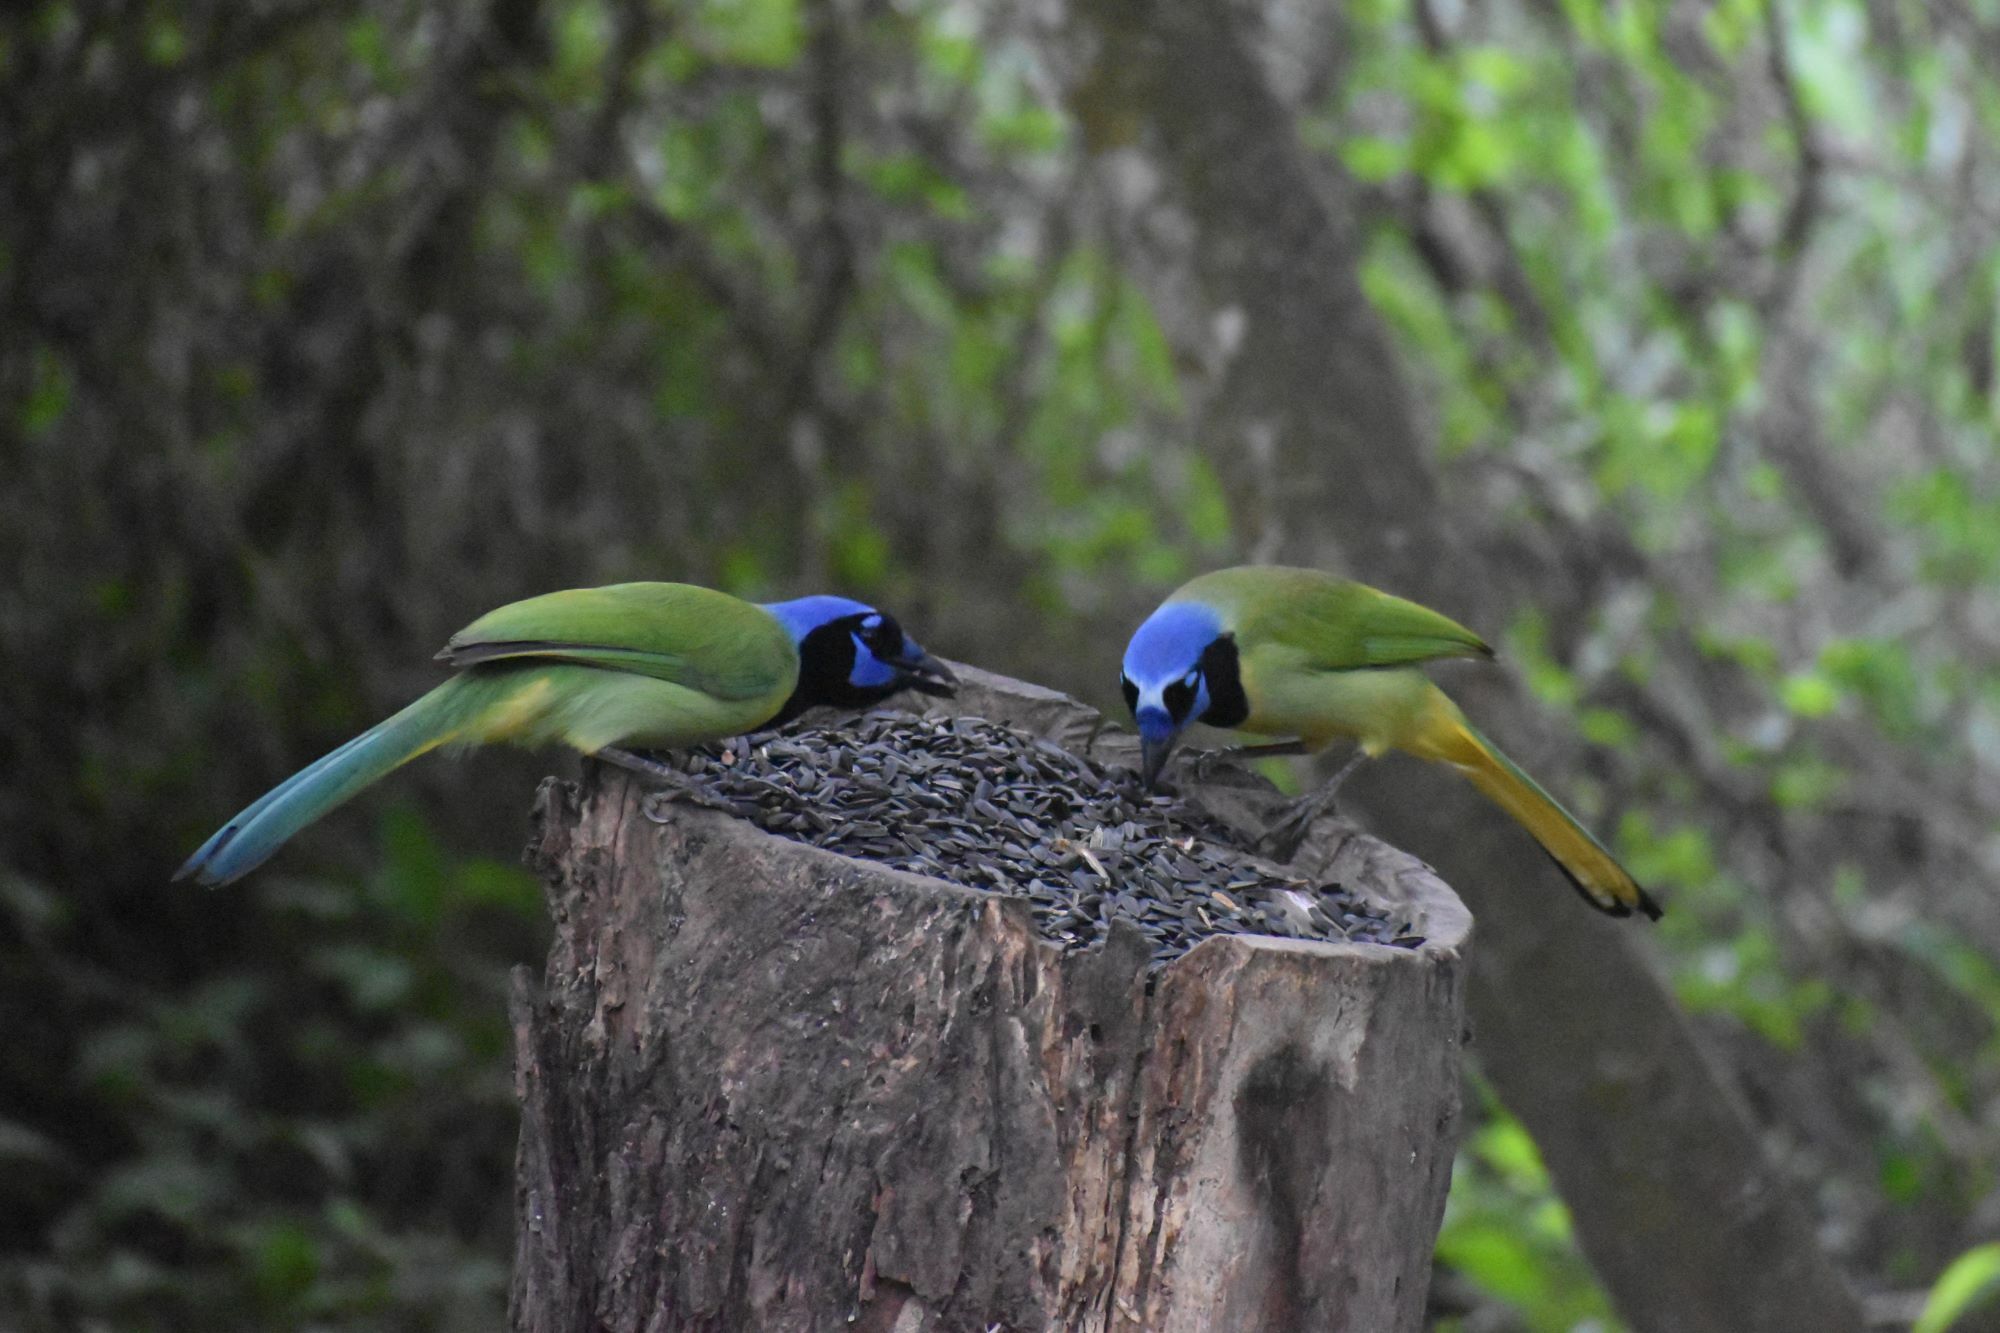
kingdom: Animalia
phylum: Chordata
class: Aves
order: Passeriformes
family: Corvidae
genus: Cyanocorax
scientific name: Cyanocorax yncas
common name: Green jay
